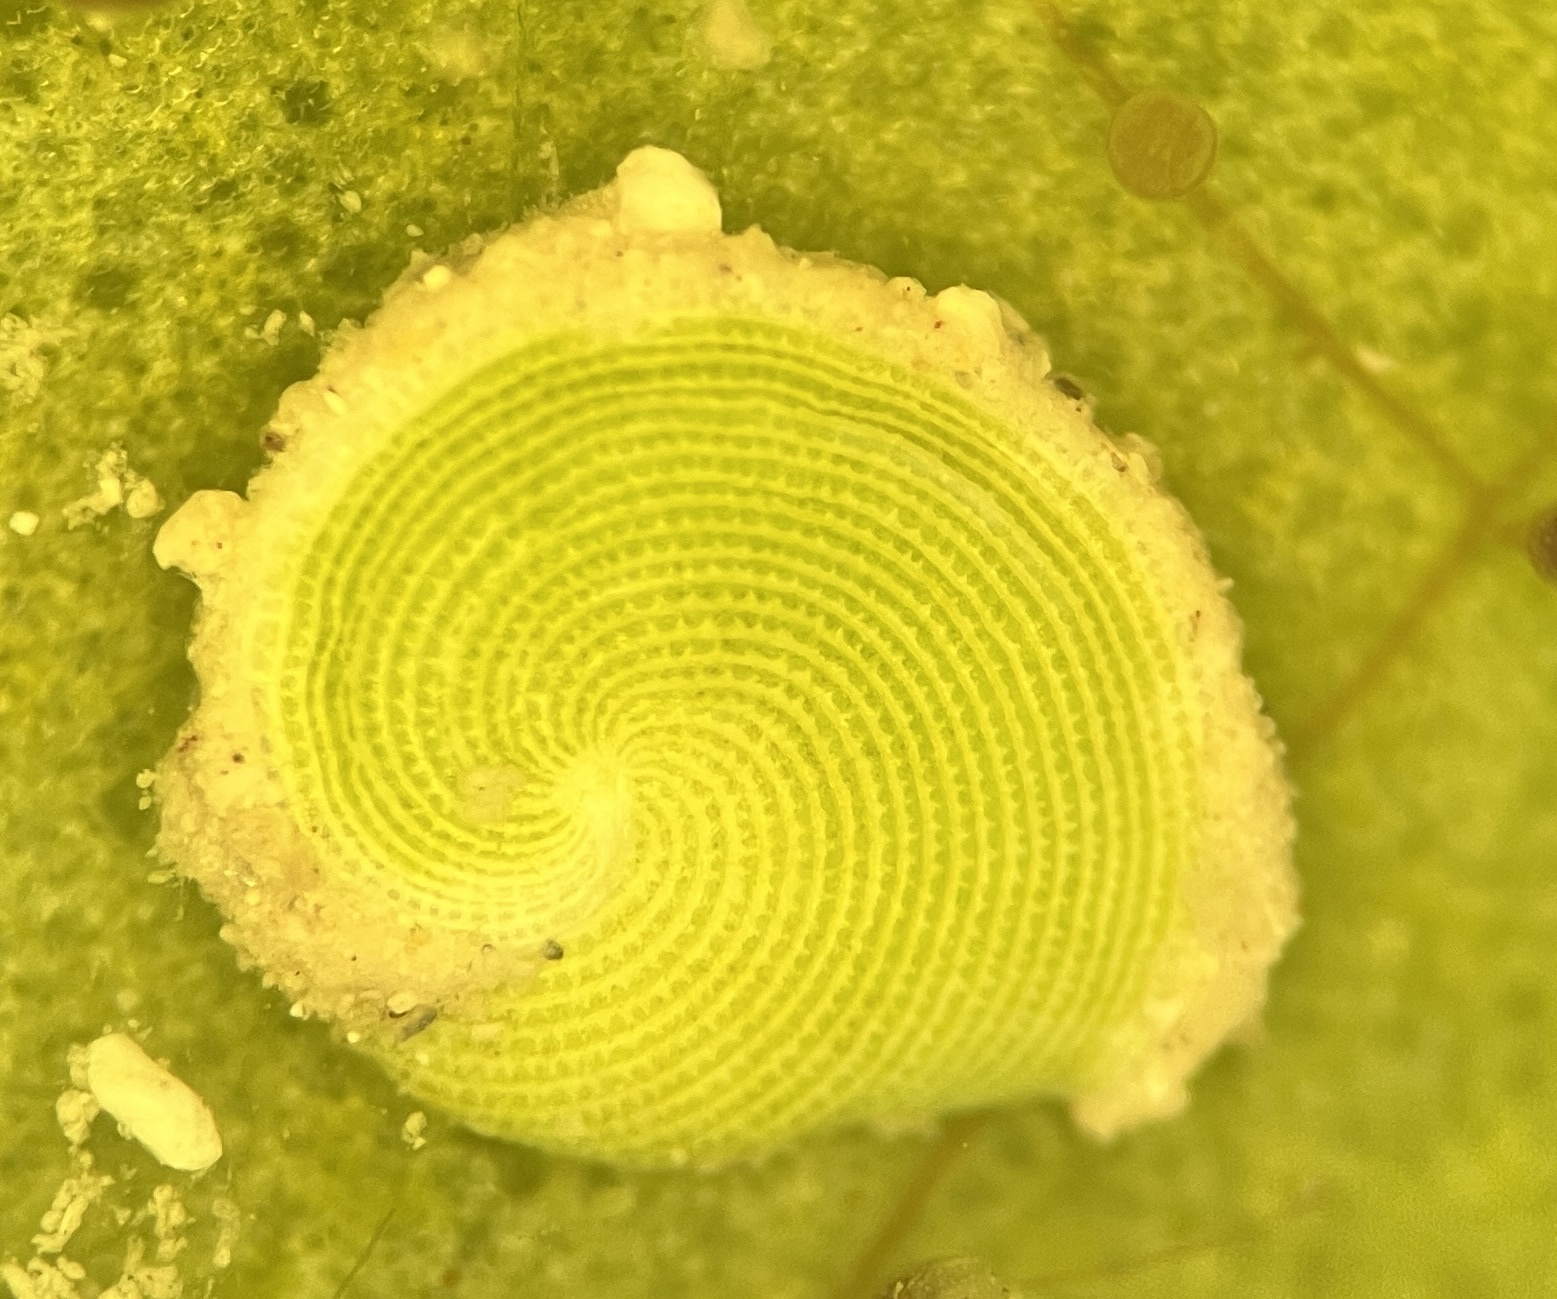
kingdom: Chromista
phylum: Foraminifera
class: Tubothalamea
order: Miliolida
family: Soritidae
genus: Archaias
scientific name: Archaias angulatus
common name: Turtle grass foram
